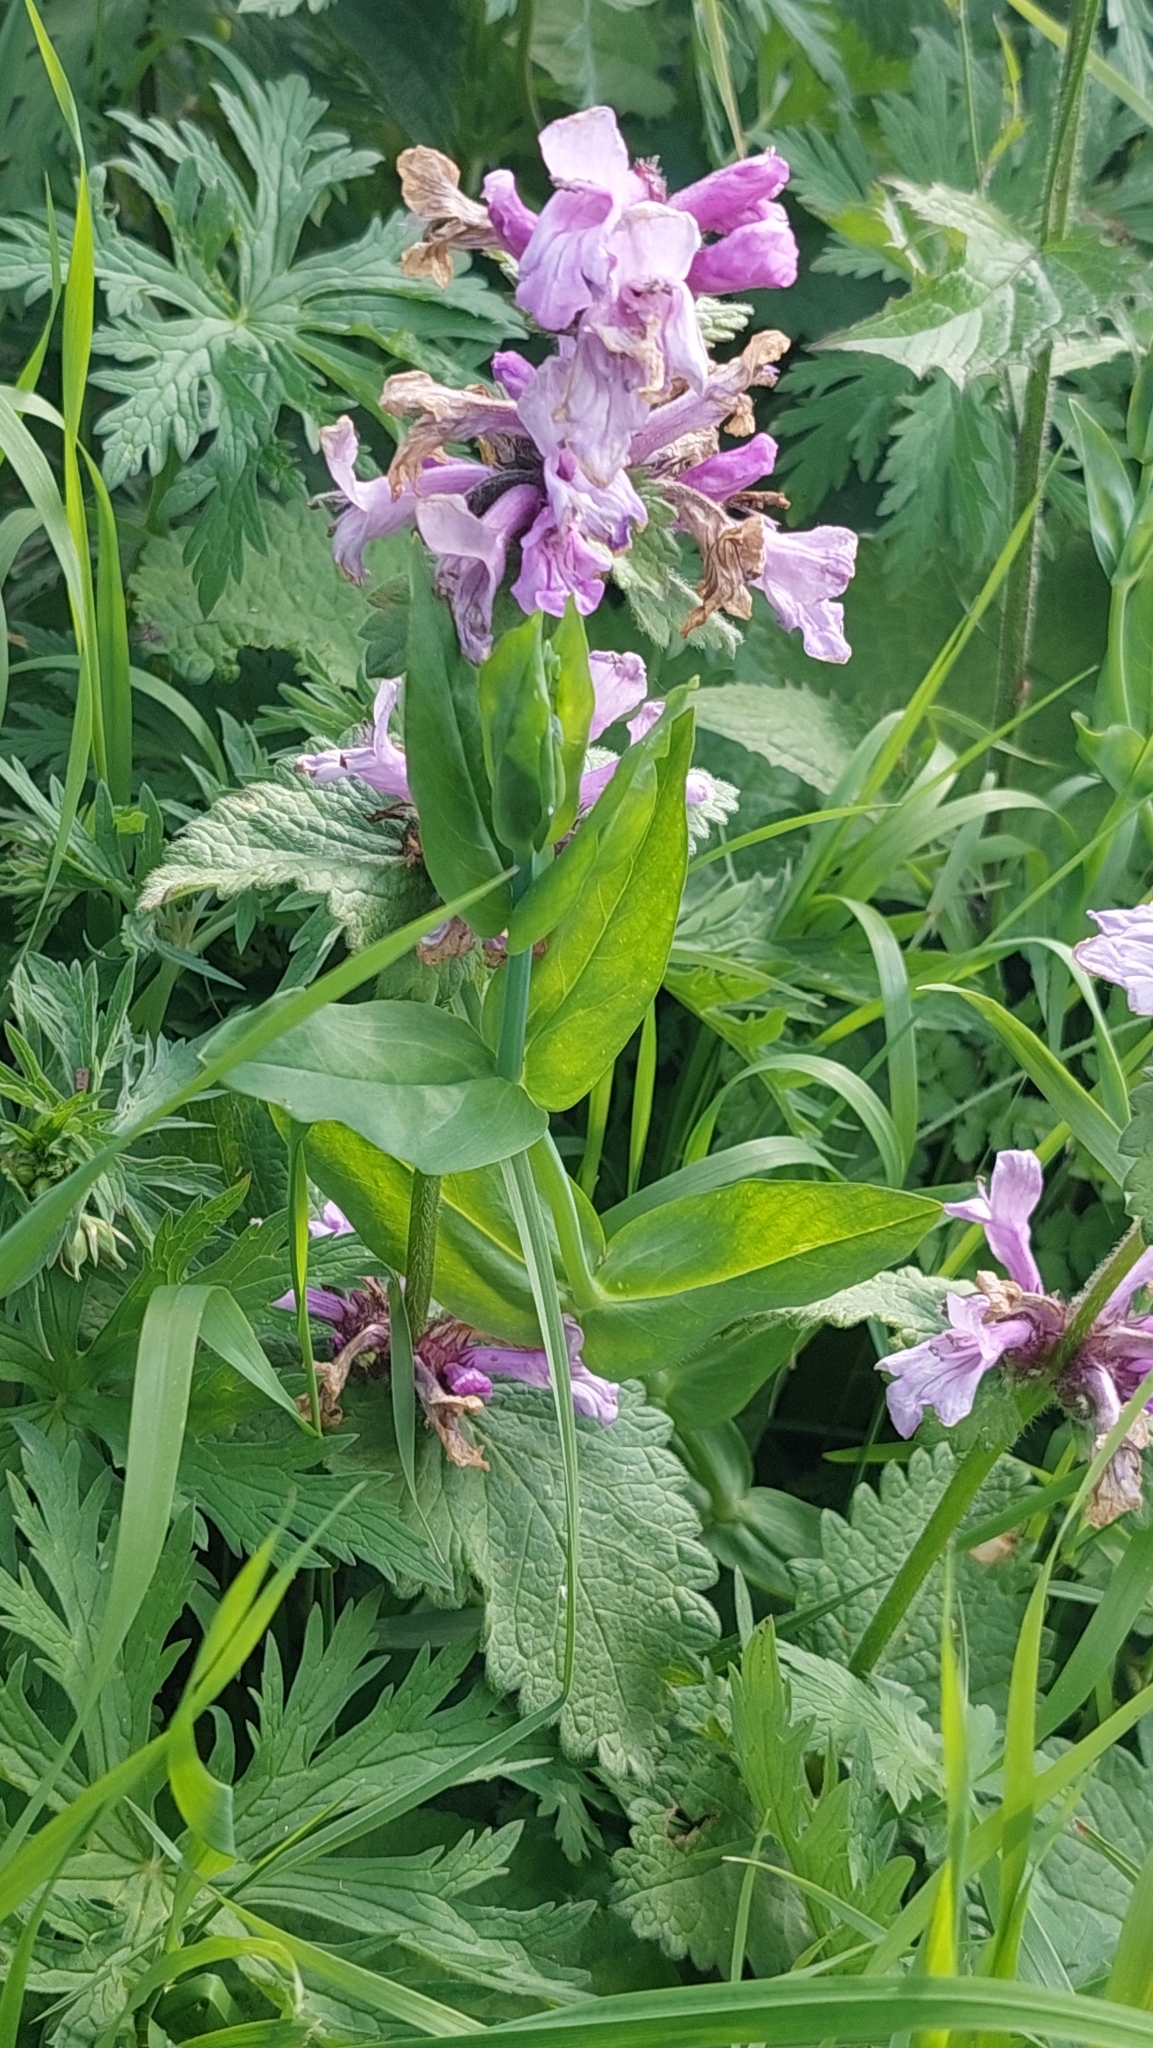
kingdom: Plantae
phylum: Tracheophyta
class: Magnoliopsida
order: Lamiales
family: Lamiaceae
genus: Betonica
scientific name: Betonica macrantha
